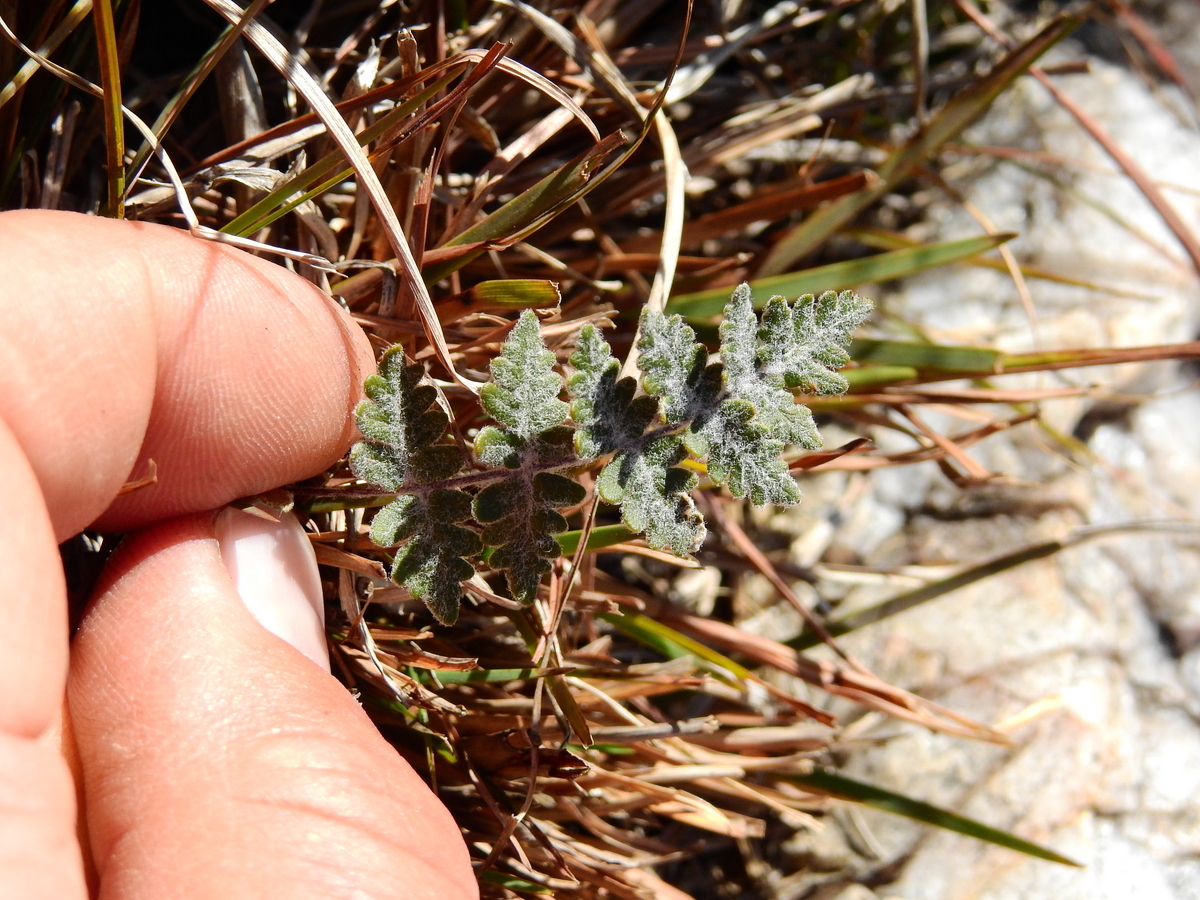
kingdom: Plantae
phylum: Tracheophyta
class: Polypodiopsida
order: Polypodiales
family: Pteridaceae
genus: Cheilanthes
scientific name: Cheilanthes buchtienii
